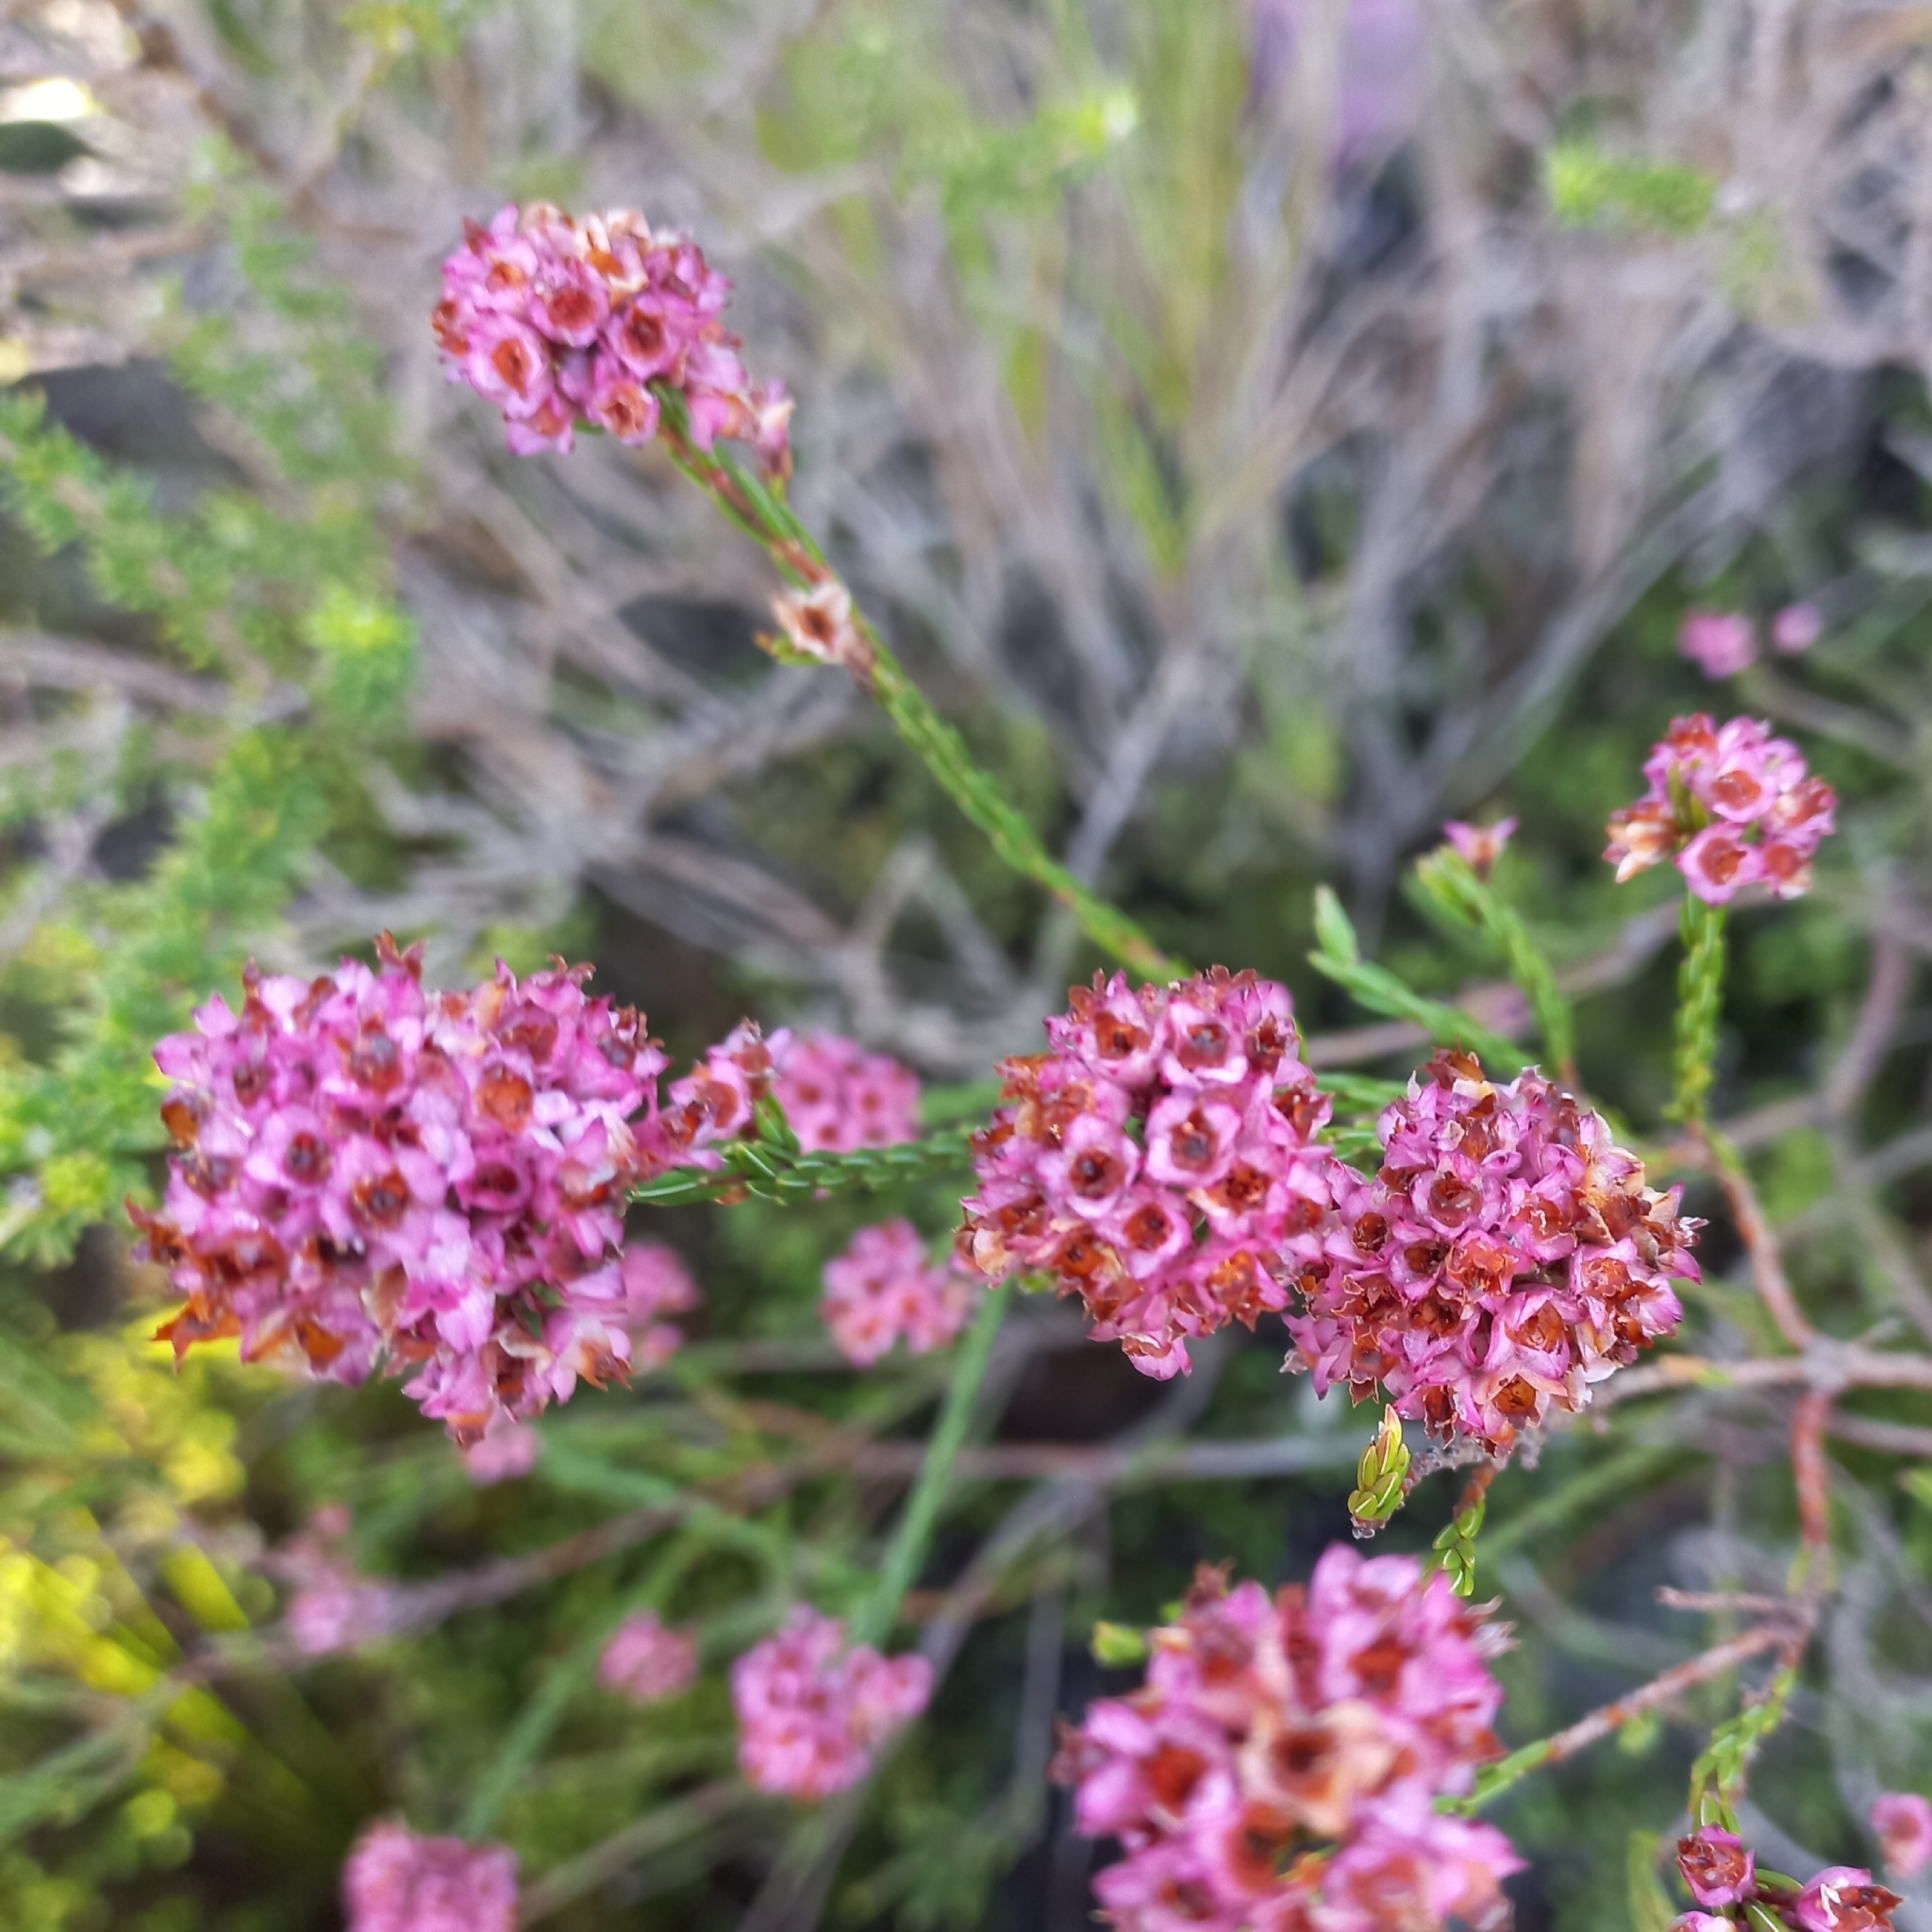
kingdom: Plantae
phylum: Tracheophyta
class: Magnoliopsida
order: Ericales
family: Ericaceae
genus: Erica
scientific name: Erica corifolia
